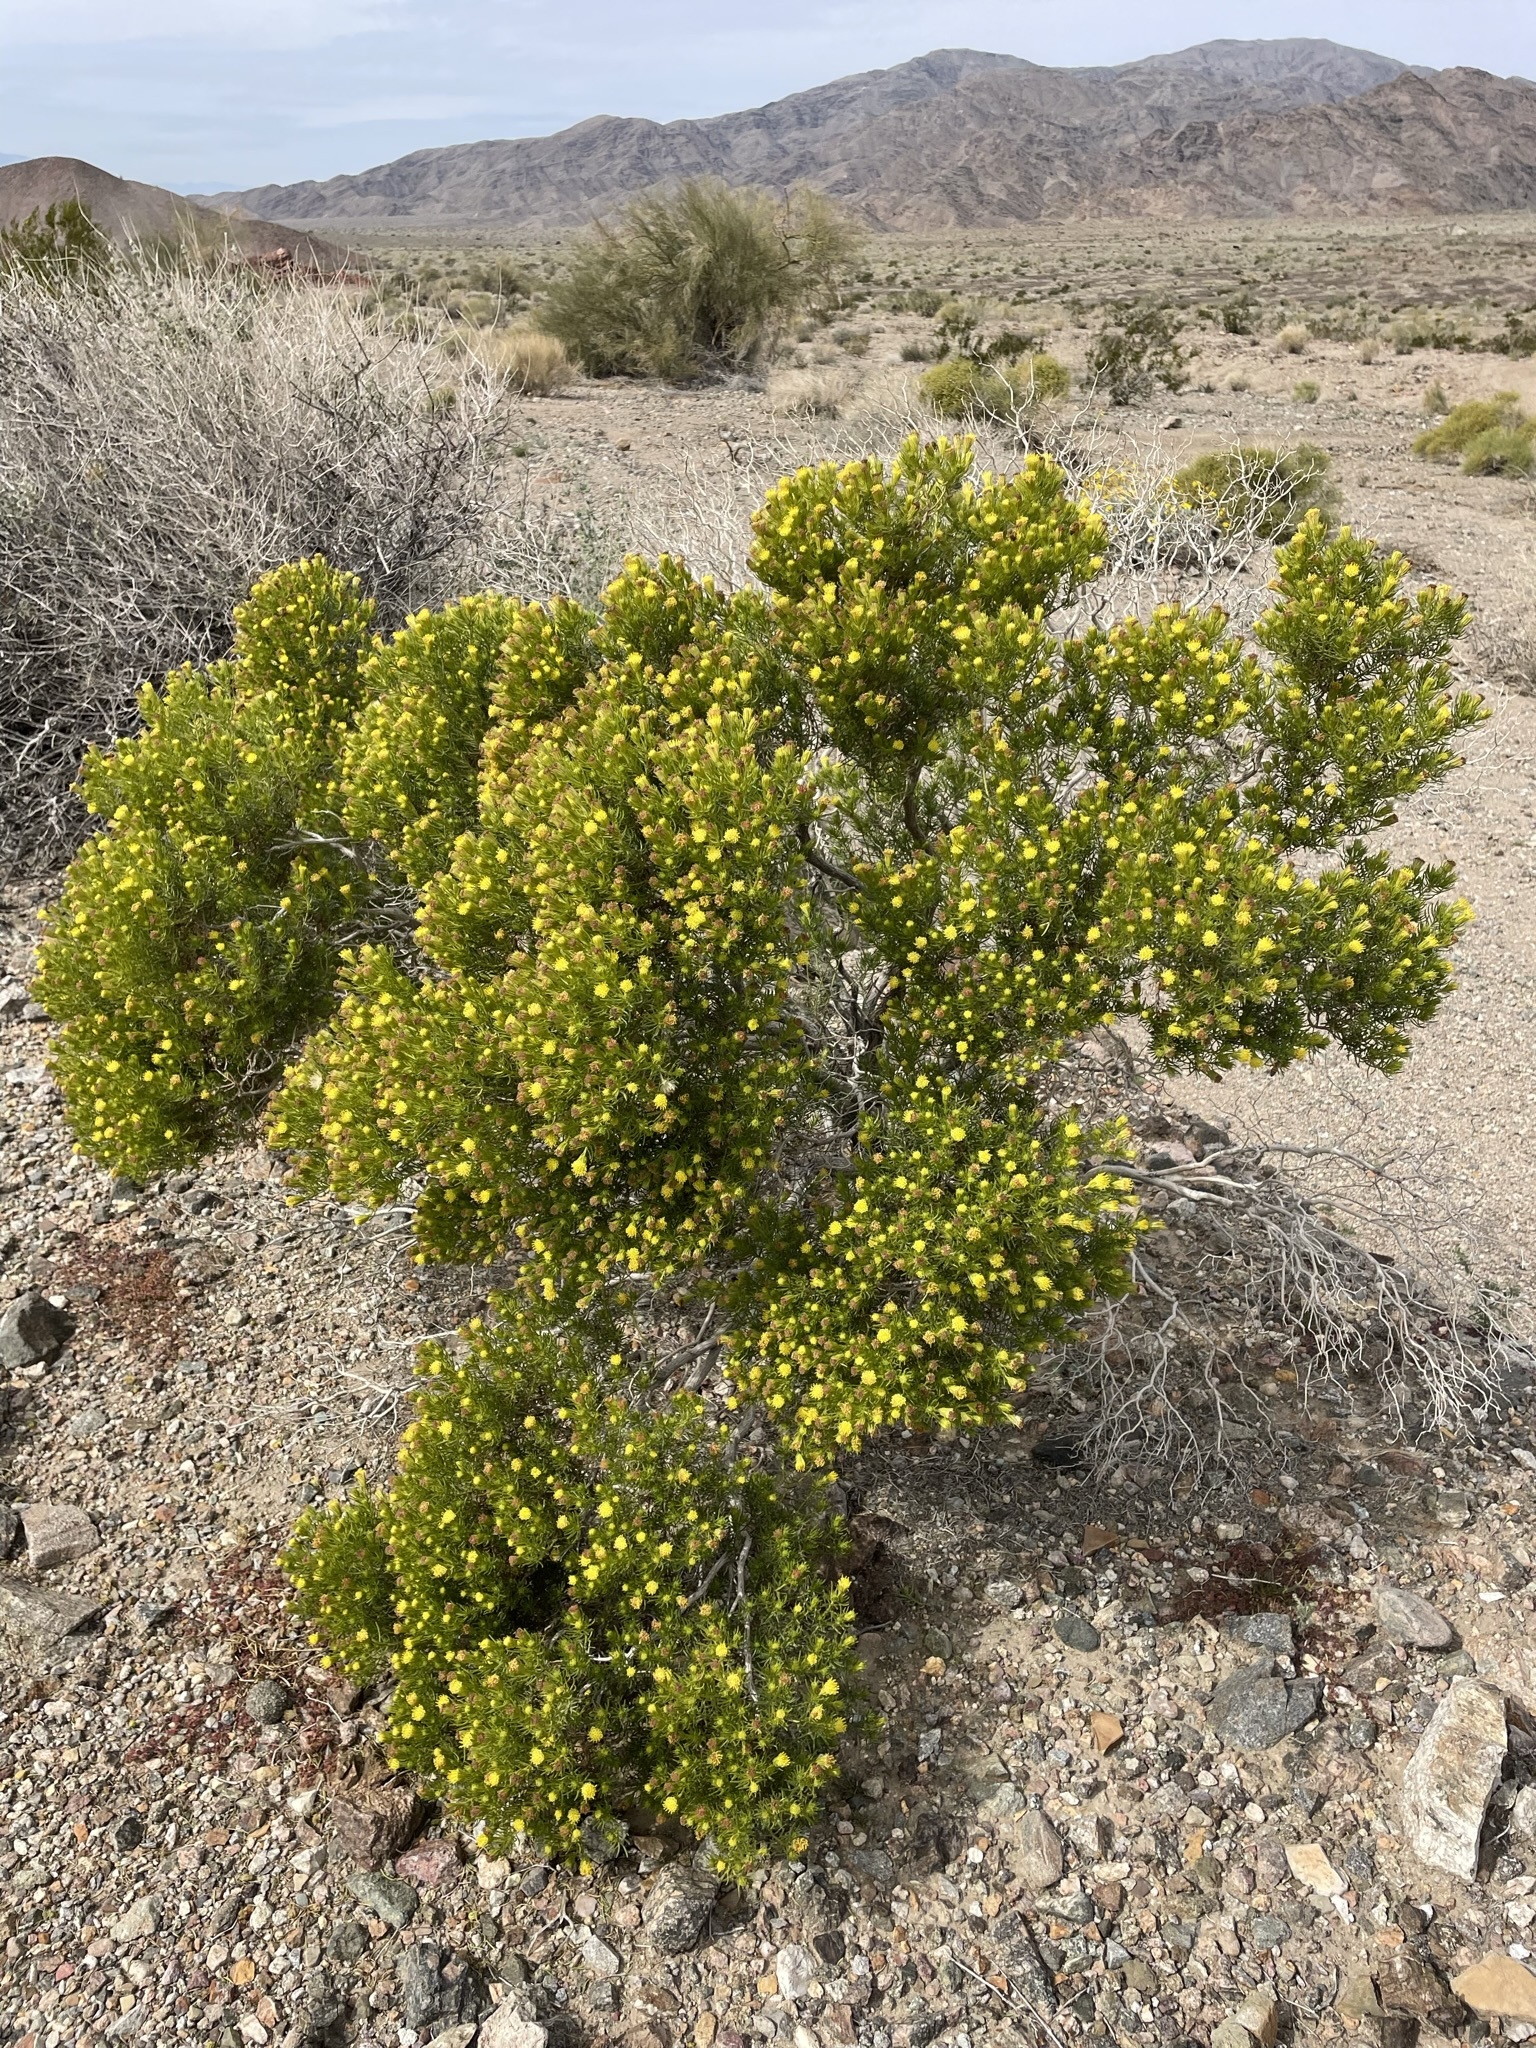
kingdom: Plantae
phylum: Tracheophyta
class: Magnoliopsida
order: Asterales
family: Asteraceae
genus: Peucephyllum
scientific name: Peucephyllum schottii
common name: Pygmy-cedar
